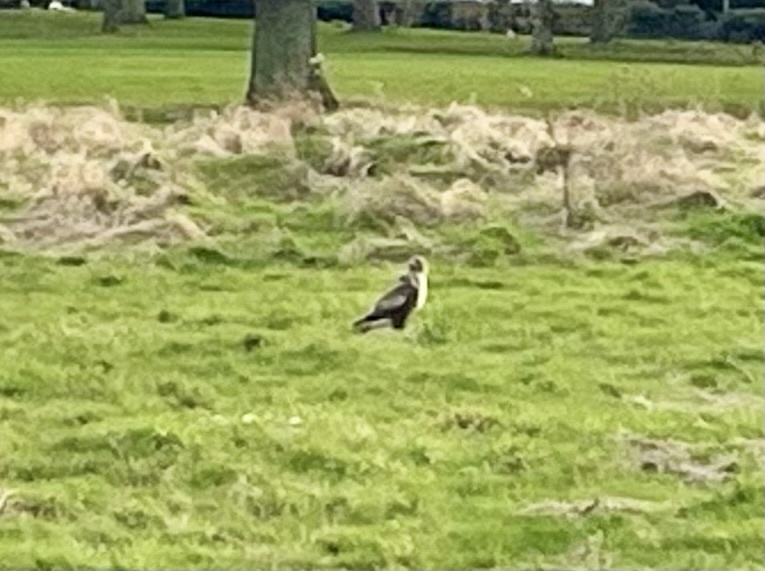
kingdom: Animalia
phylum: Chordata
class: Aves
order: Accipitriformes
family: Accipitridae
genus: Buteo
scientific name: Buteo buteo
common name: Common buzzard
